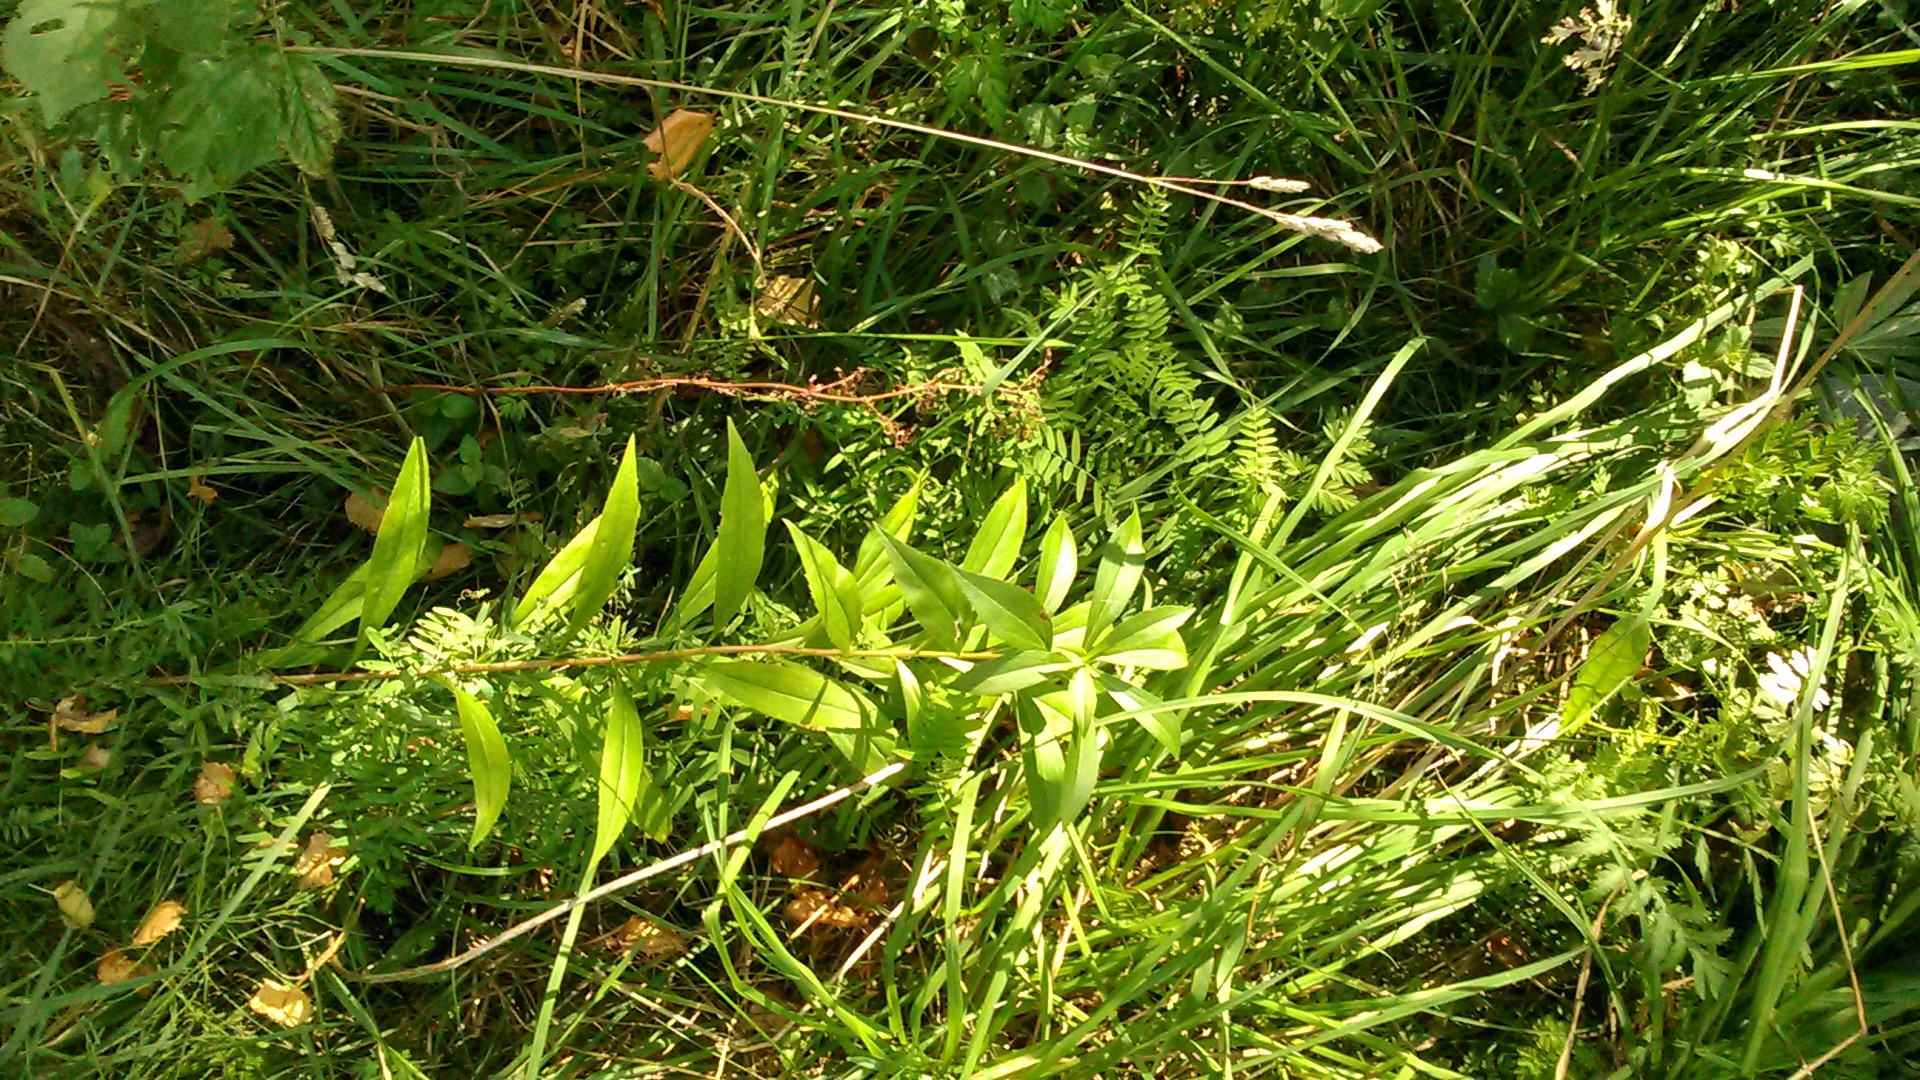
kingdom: Plantae
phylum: Tracheophyta
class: Magnoliopsida
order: Asterales
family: Asteraceae
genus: Solidago
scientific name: Solidago canadensis
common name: Canada goldenrod
